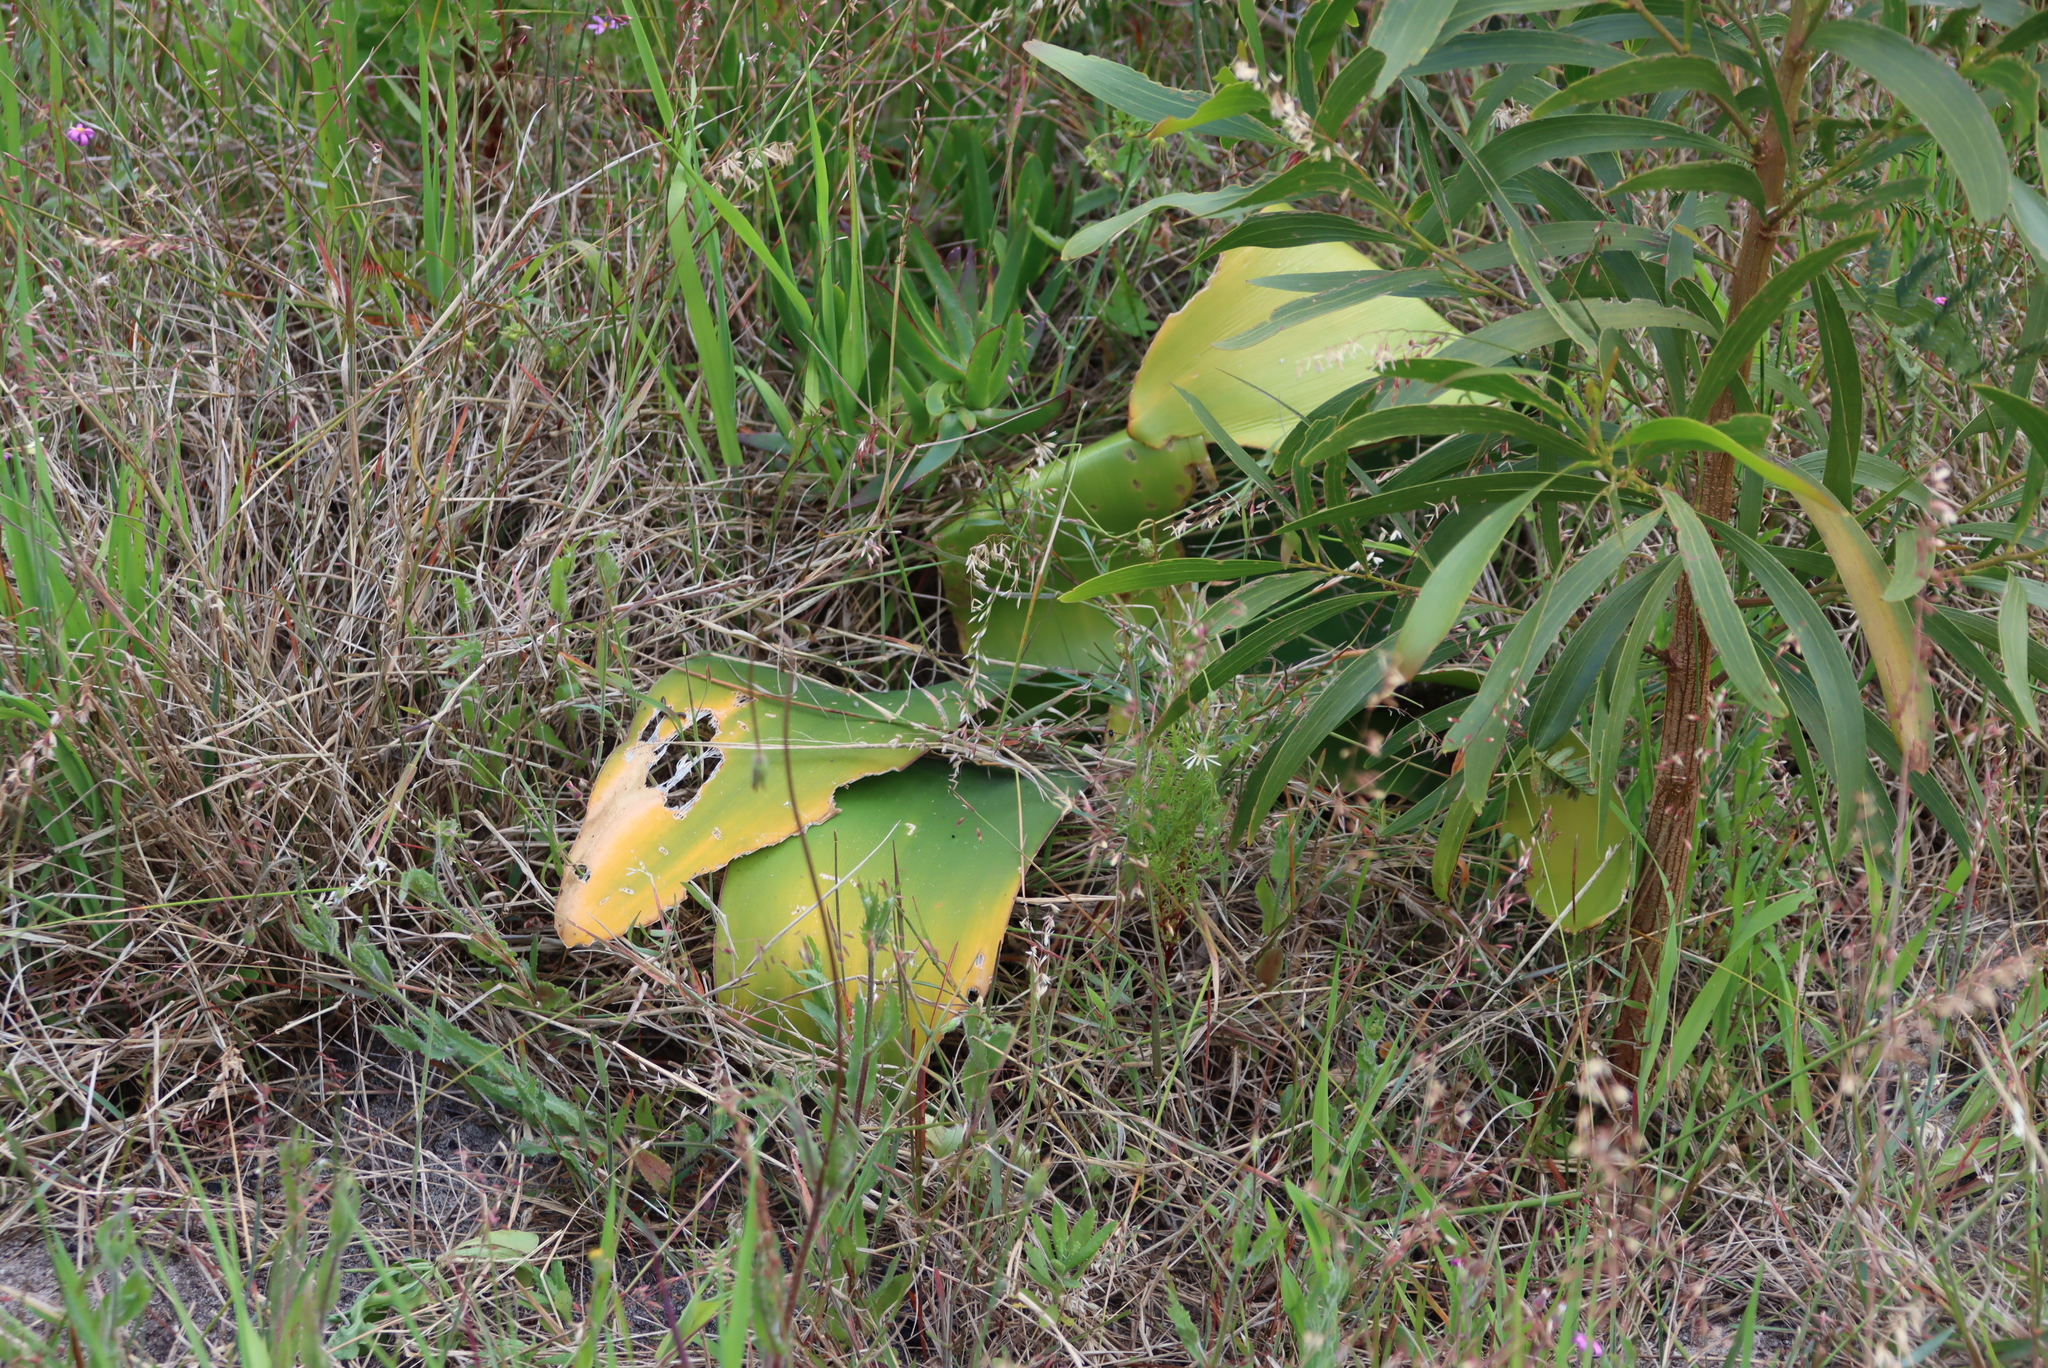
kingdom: Plantae
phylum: Tracheophyta
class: Liliopsida
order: Asparagales
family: Amaryllidaceae
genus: Brunsvigia
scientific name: Brunsvigia orientalis
